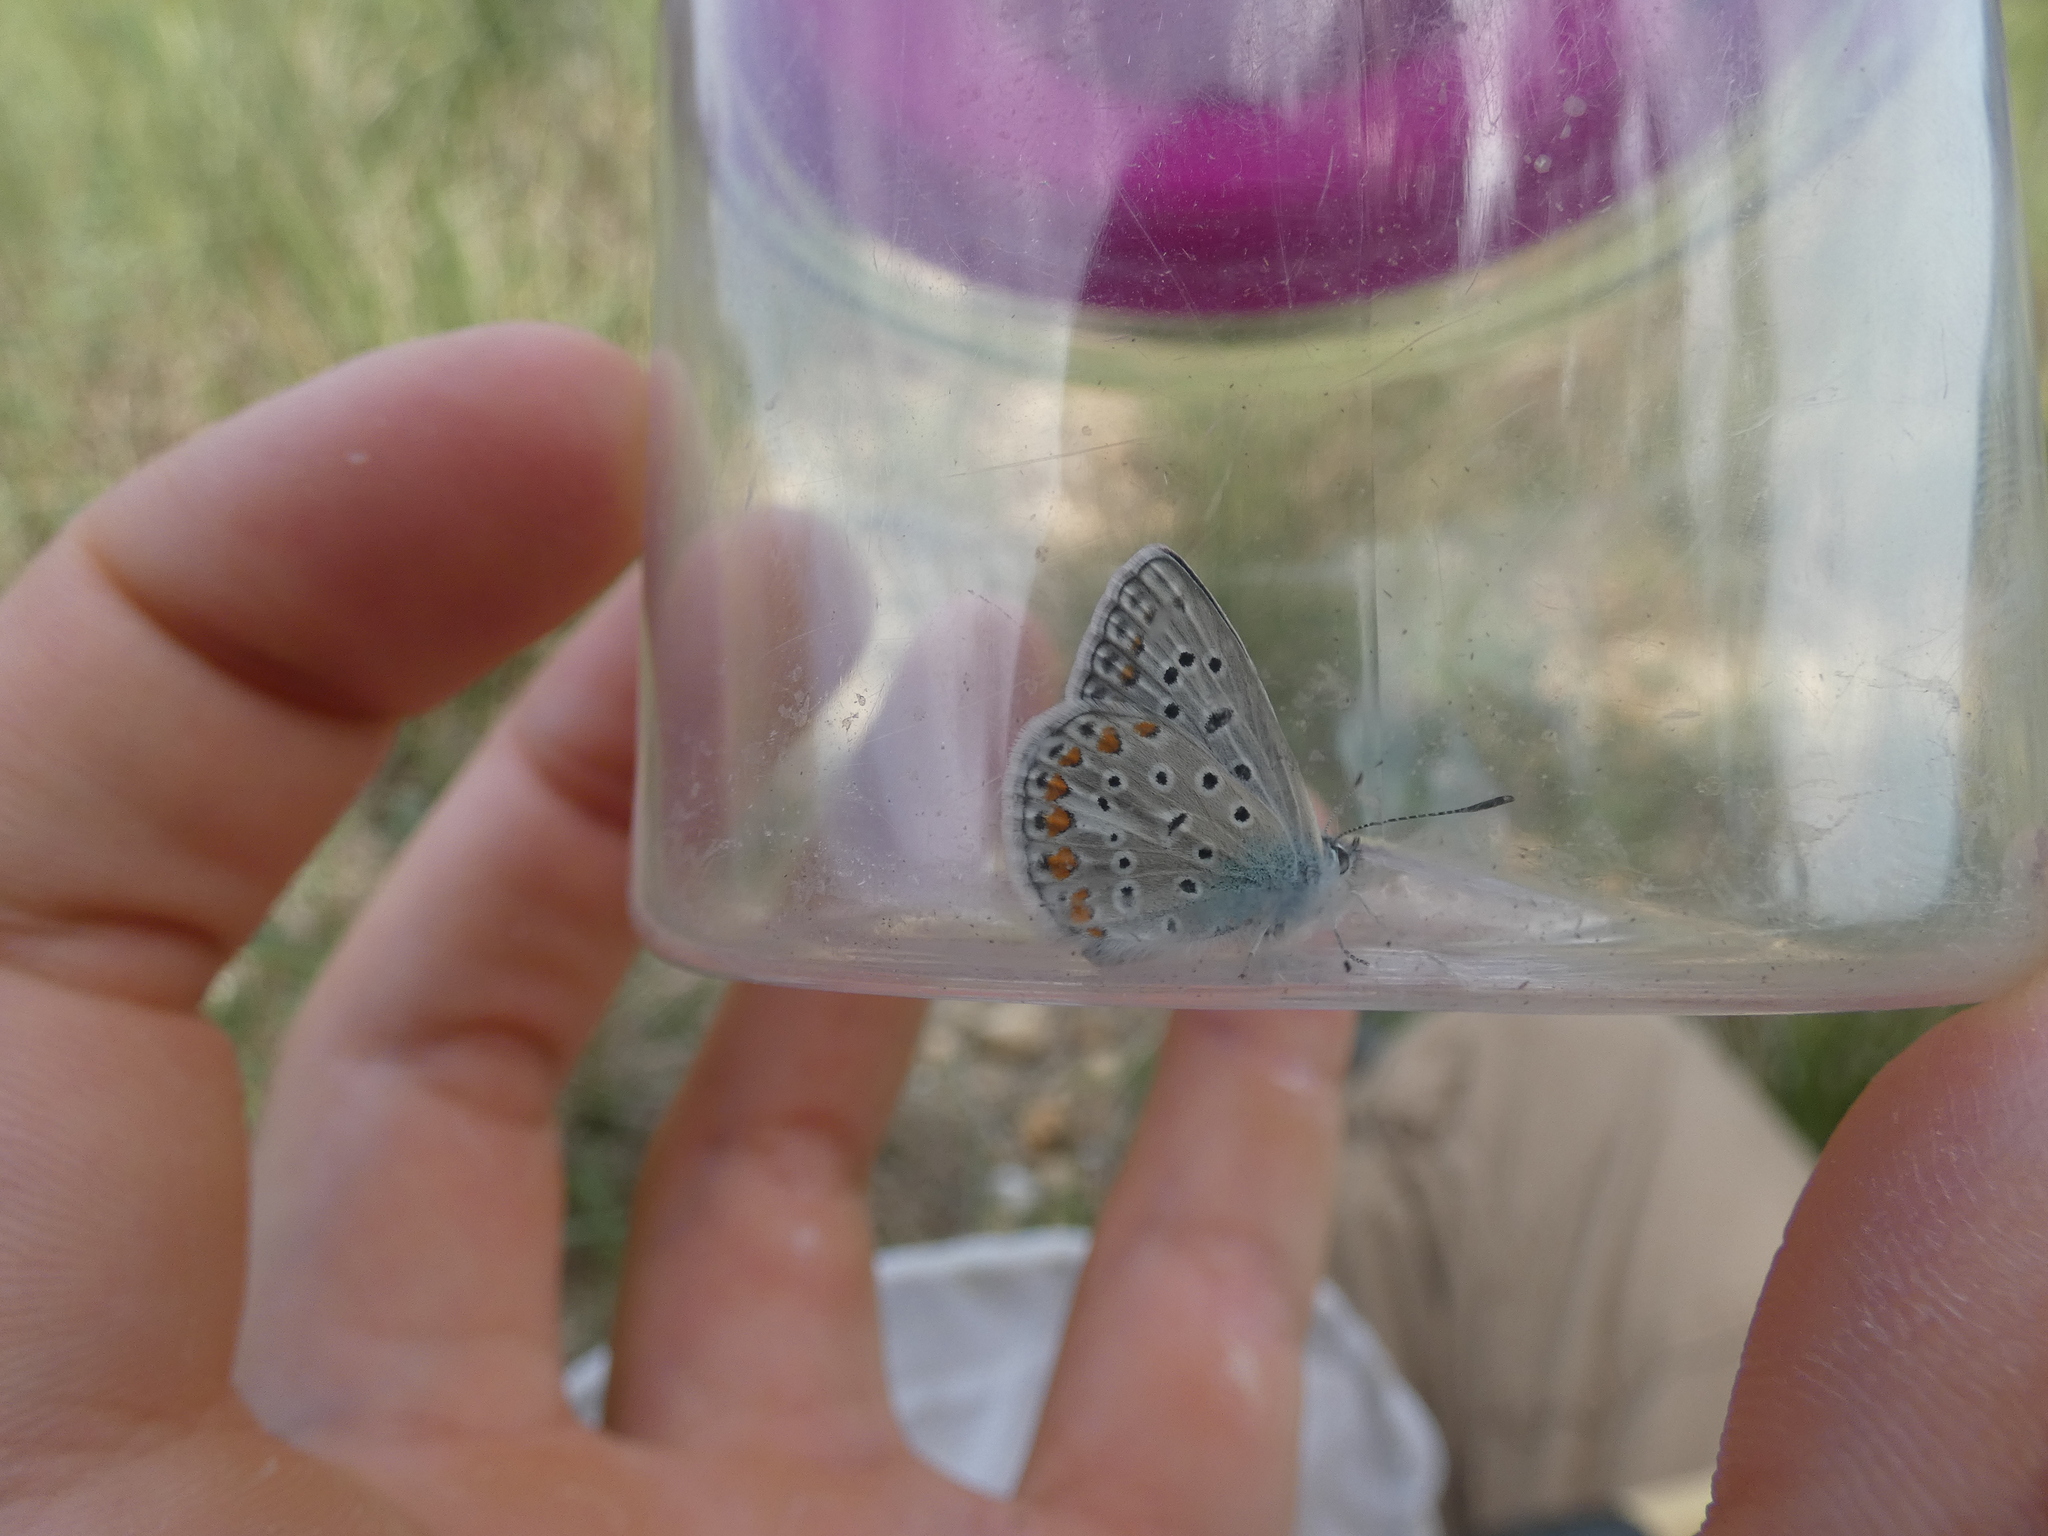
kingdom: Animalia
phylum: Arthropoda
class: Insecta
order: Lepidoptera
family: Lycaenidae
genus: Polyommatus
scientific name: Polyommatus icarus
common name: Common blue
